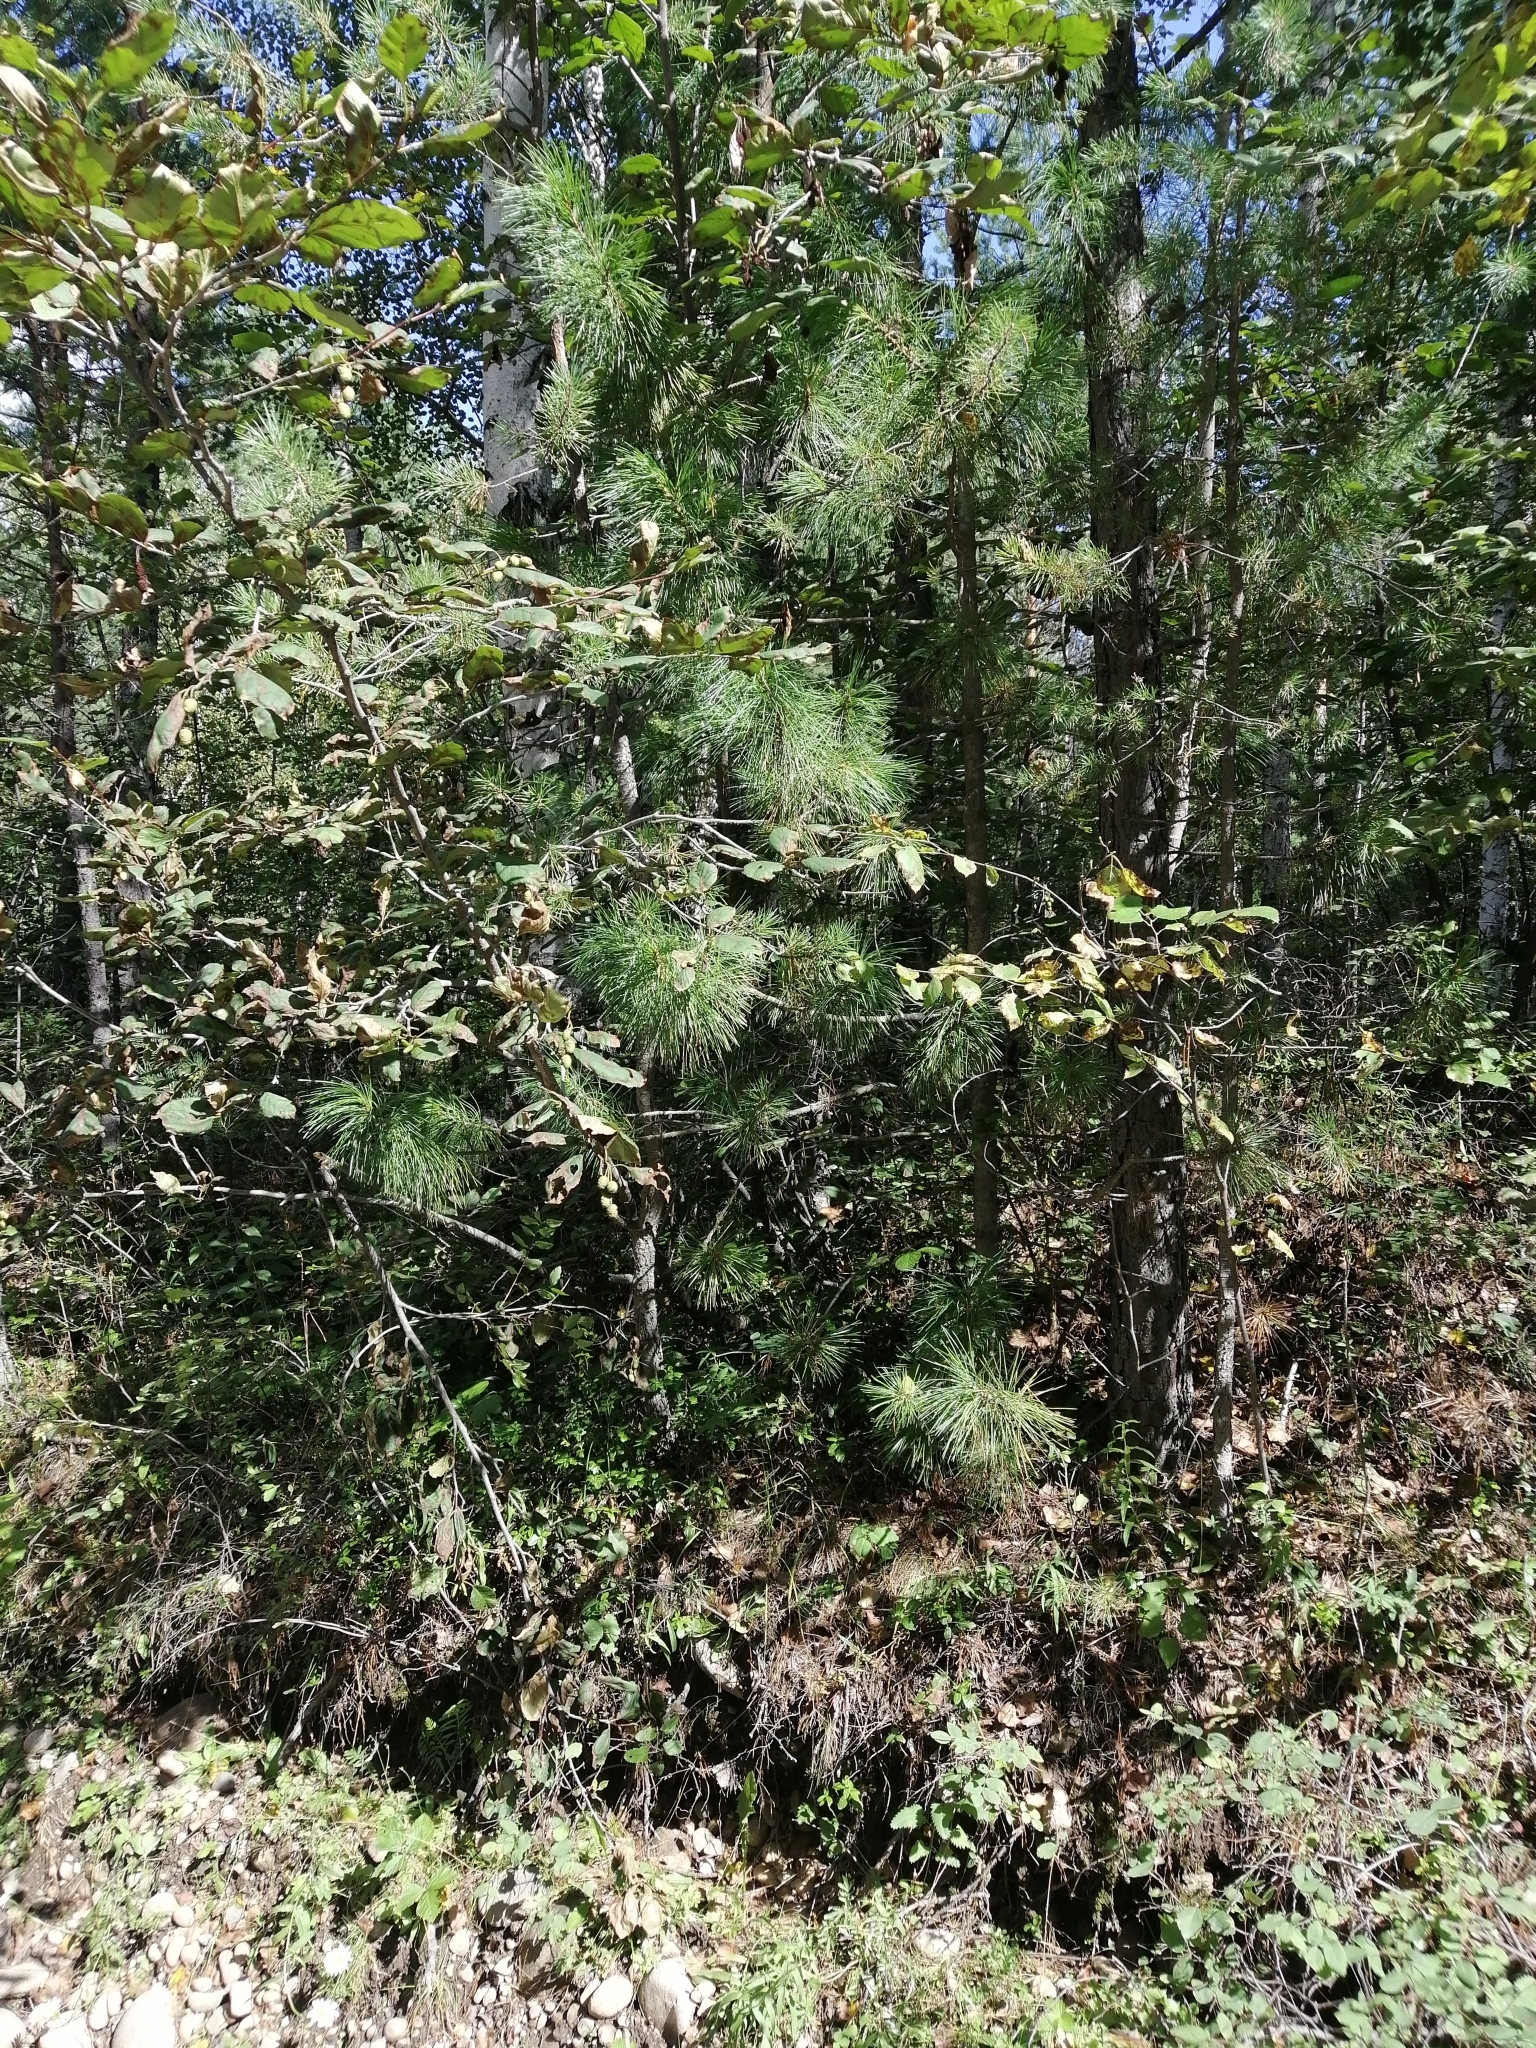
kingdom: Plantae
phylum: Tracheophyta
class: Pinopsida
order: Pinales
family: Pinaceae
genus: Pinus
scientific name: Pinus sibirica
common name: Siberian pine
